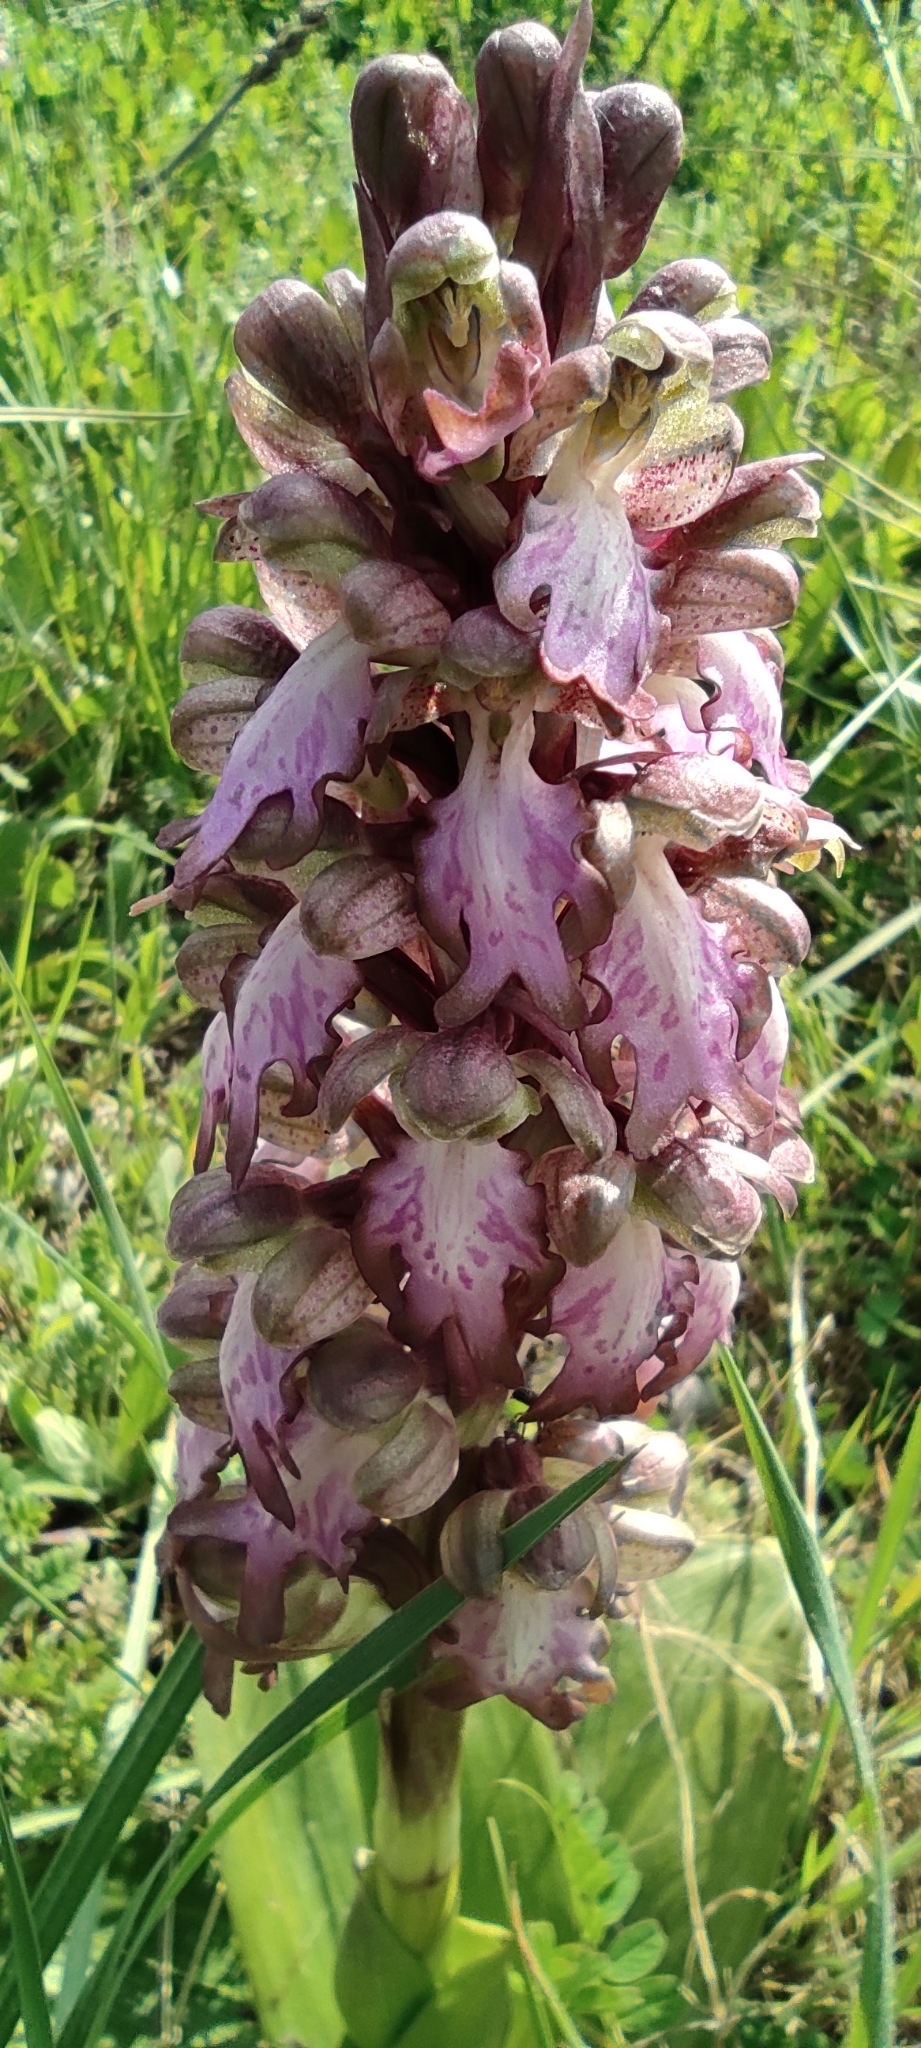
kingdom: Plantae
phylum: Tracheophyta
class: Liliopsida
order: Asparagales
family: Orchidaceae
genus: Himantoglossum
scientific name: Himantoglossum robertianum
